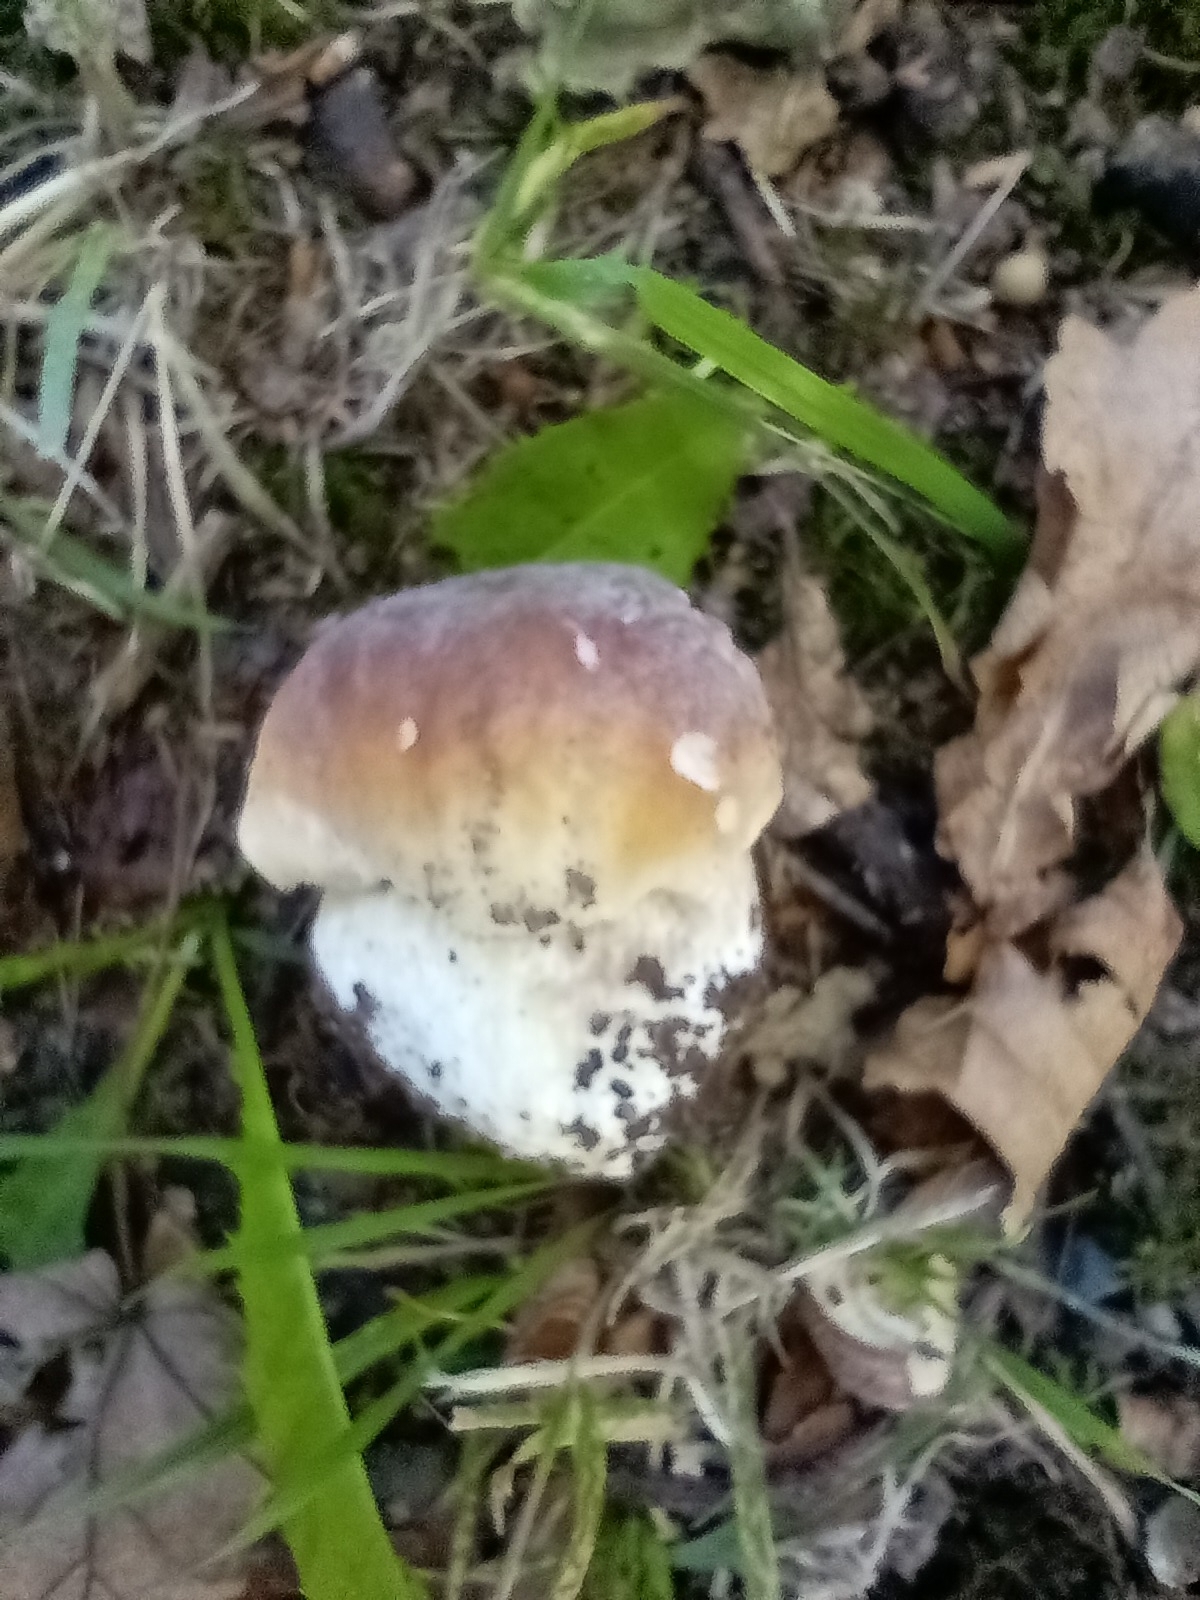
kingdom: Fungi
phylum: Basidiomycota
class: Agaricomycetes
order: Boletales
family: Boletaceae
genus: Boletus
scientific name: Boletus edulis
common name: Cep
